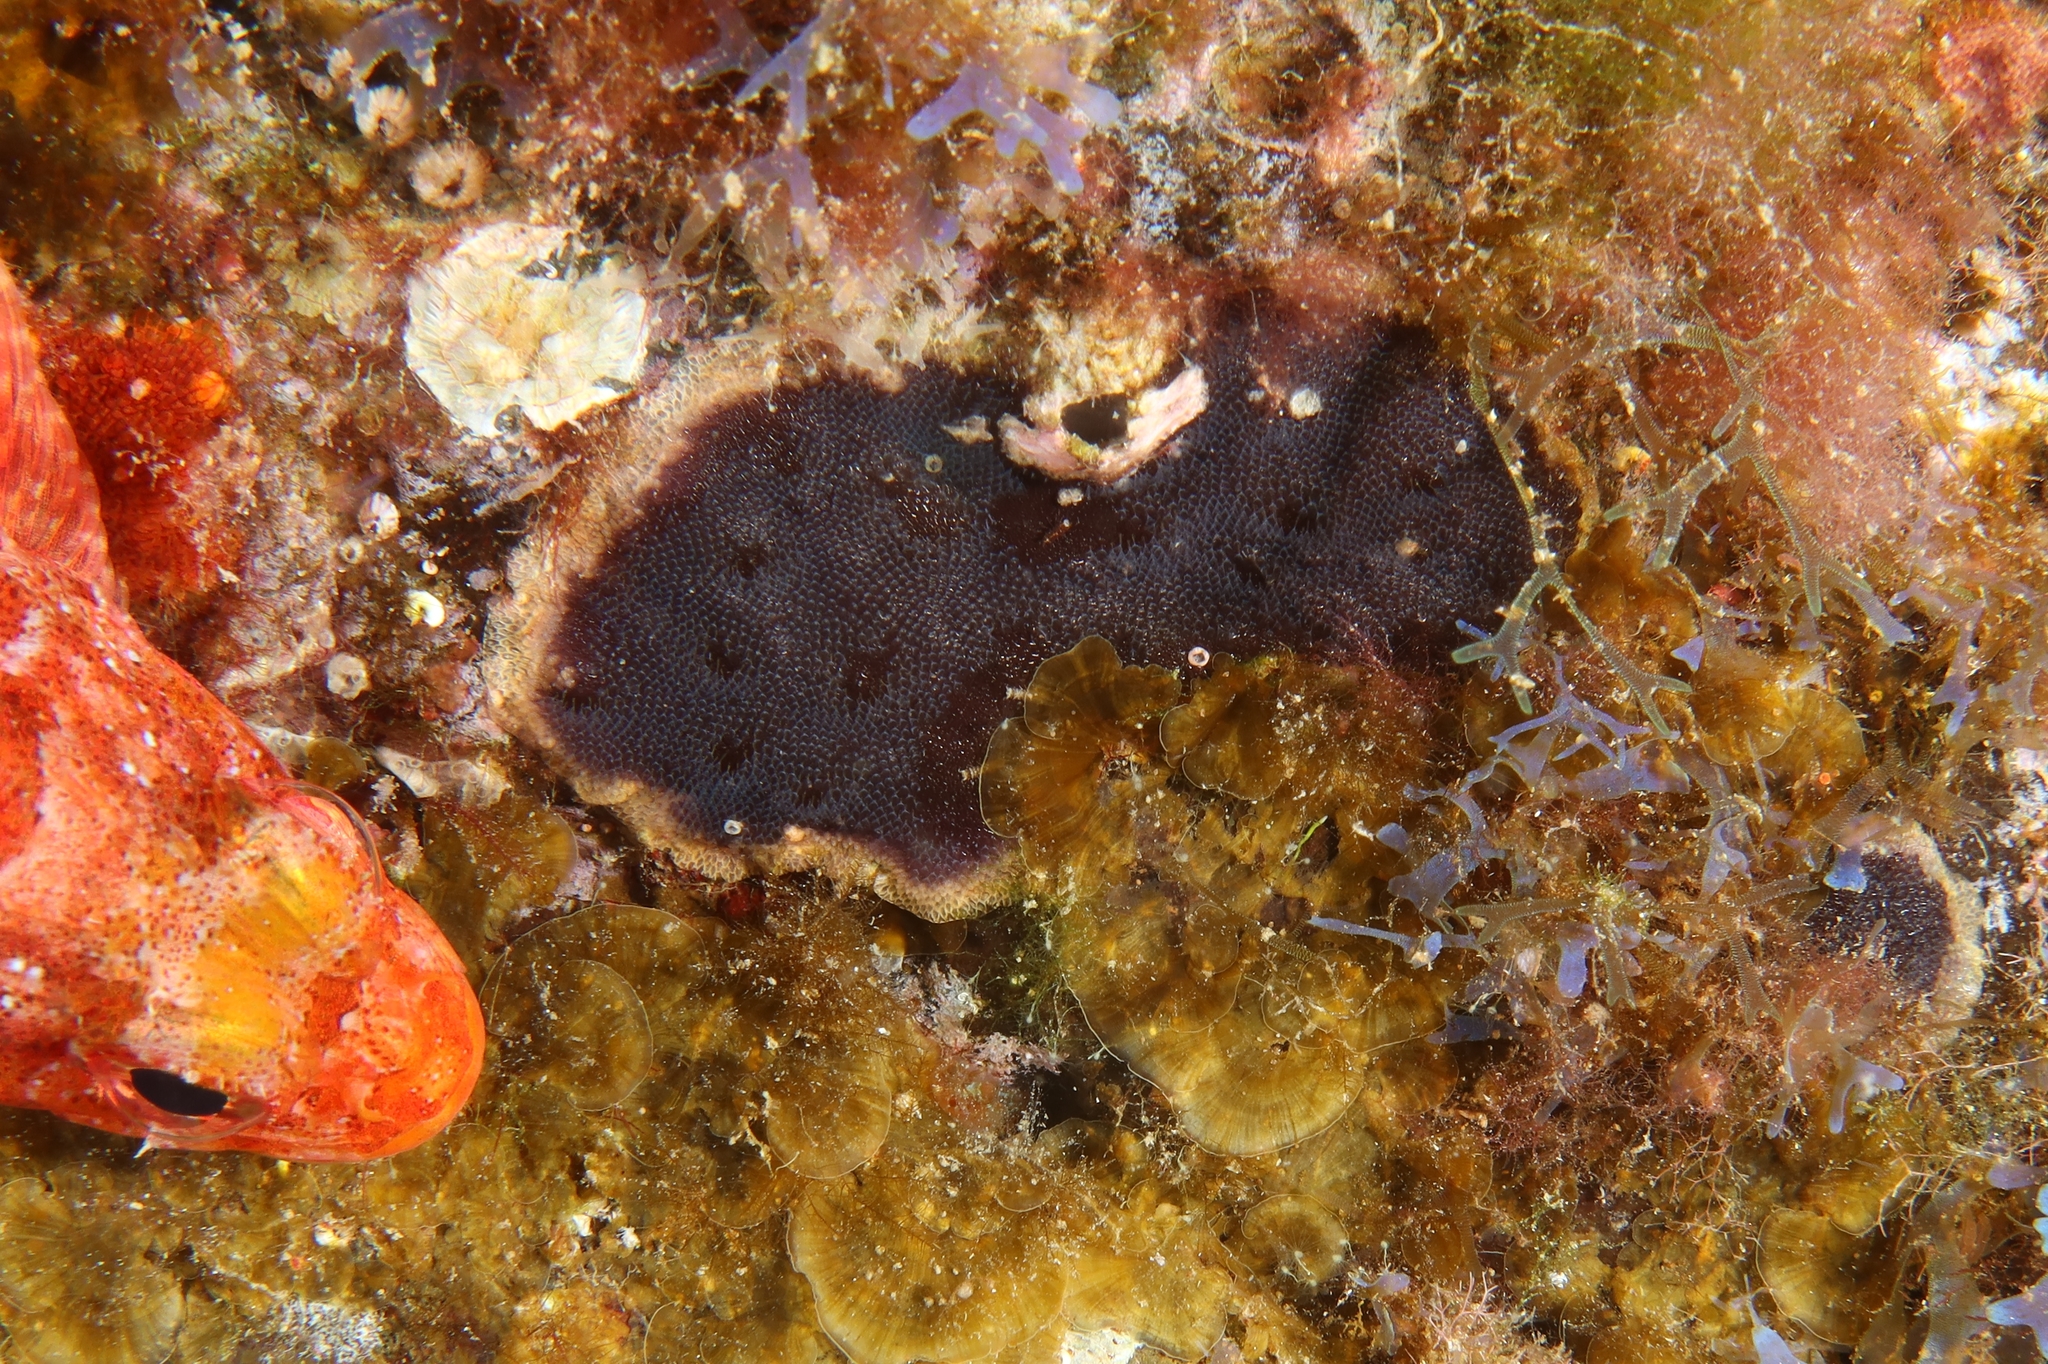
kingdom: Animalia
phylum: Bryozoa
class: Gymnolaemata
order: Cheilostomatida
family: Adeonidae
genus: Reptadeonella
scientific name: Reptadeonella violacea
